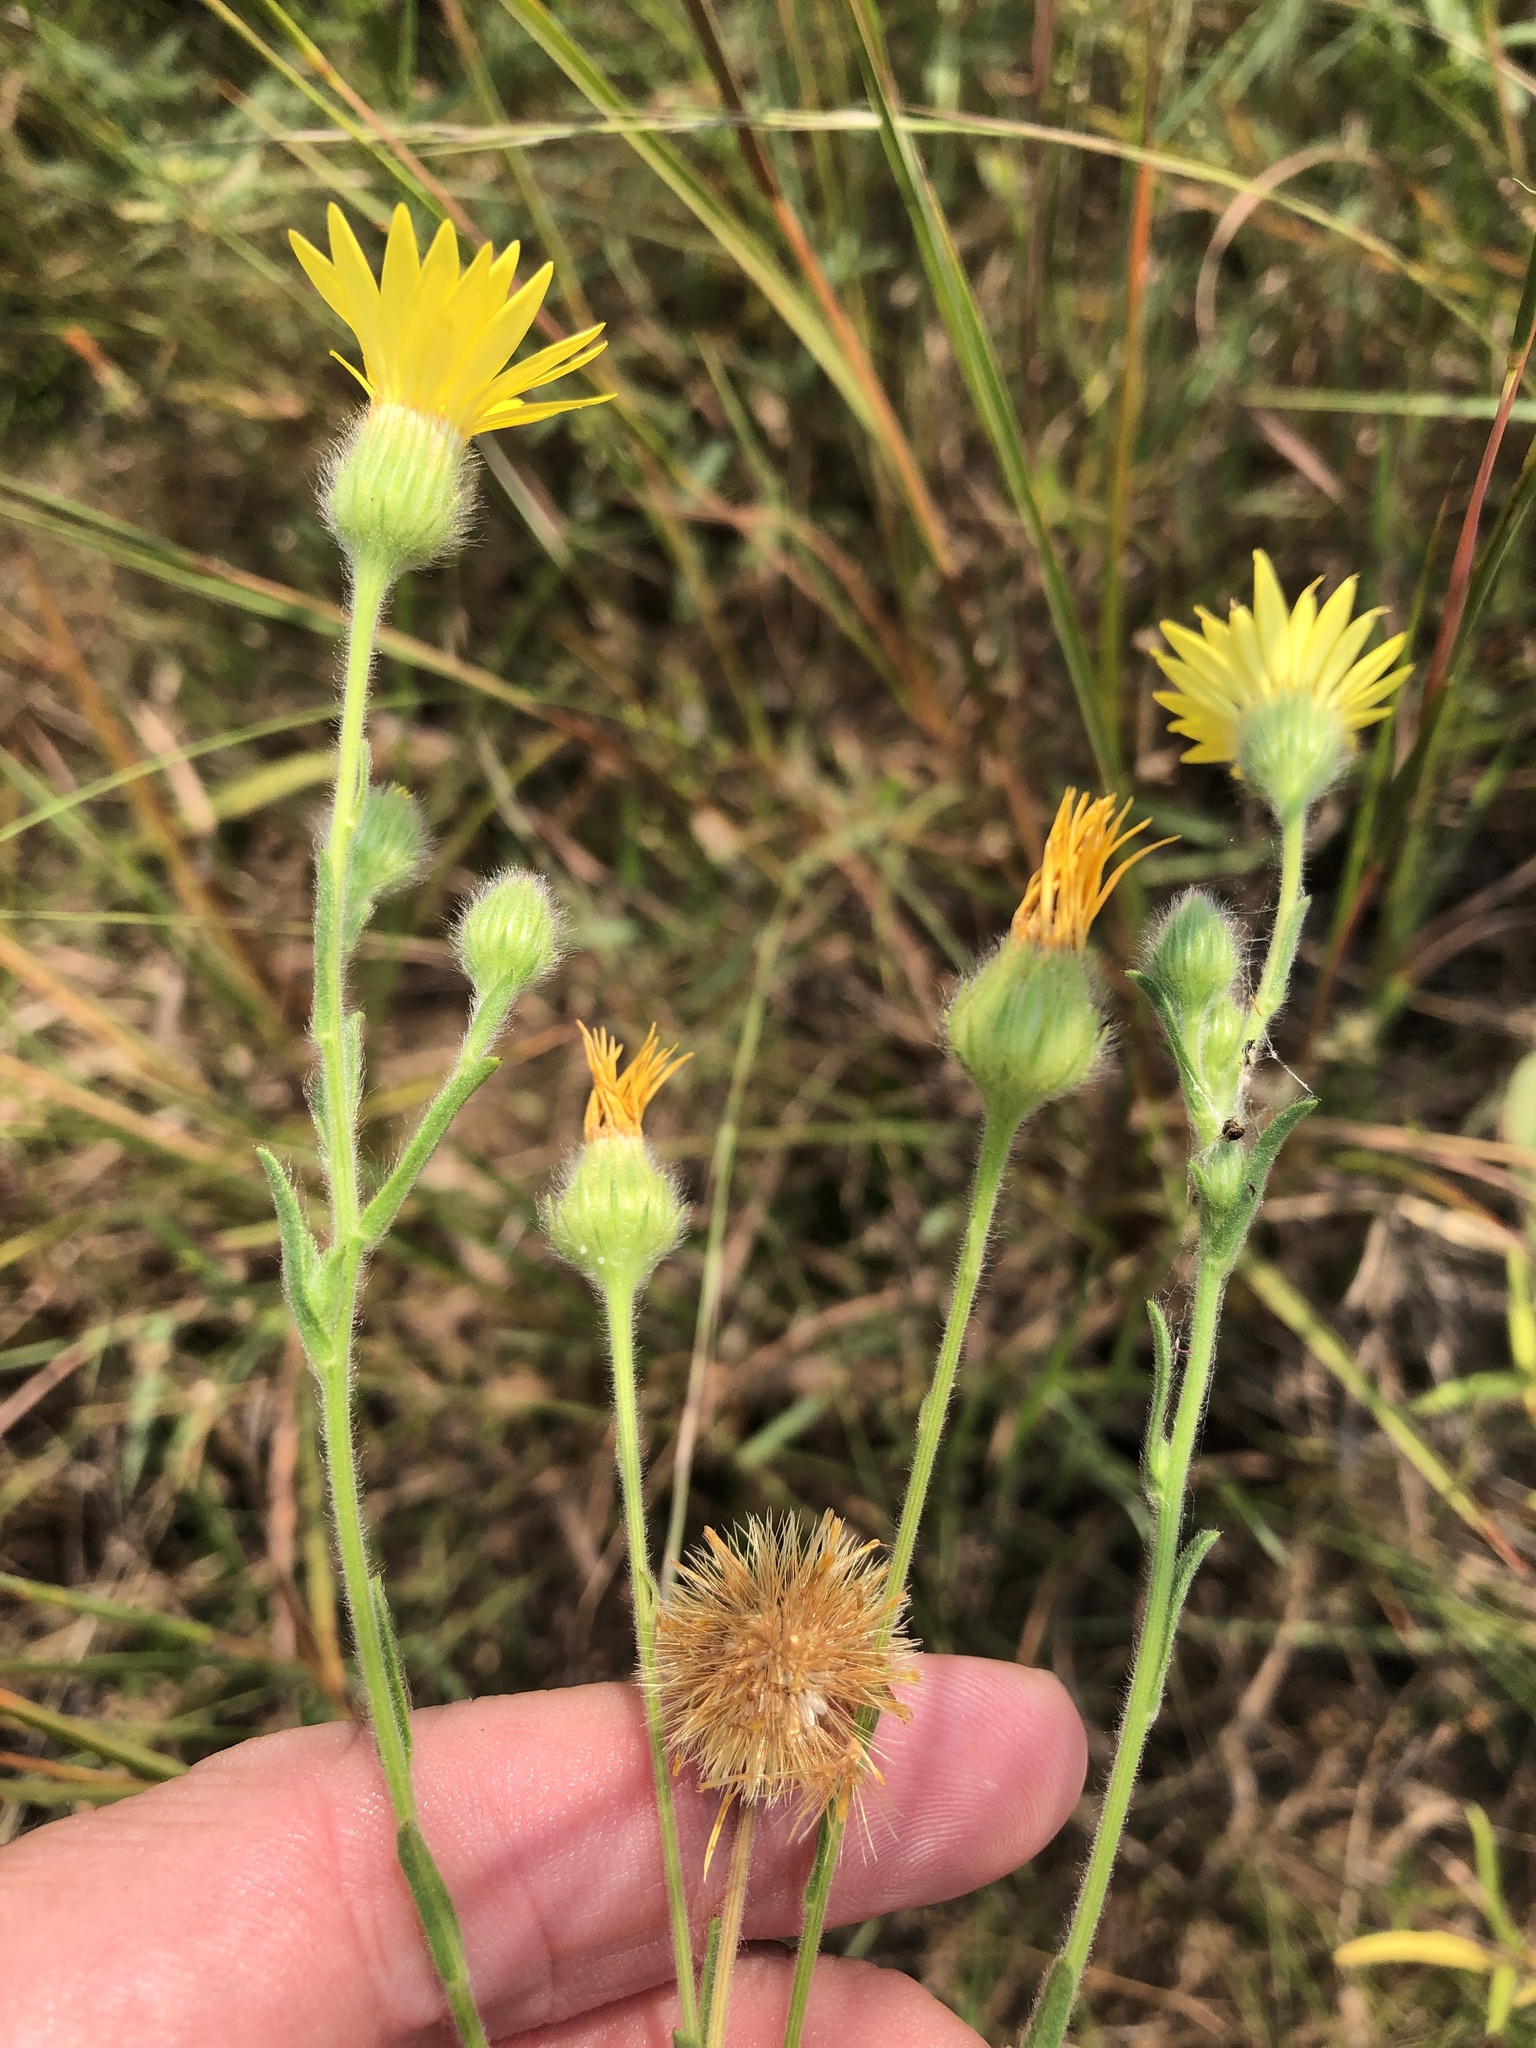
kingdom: Plantae
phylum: Tracheophyta
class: Magnoliopsida
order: Asterales
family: Asteraceae
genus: Bradburia
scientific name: Bradburia pilosa
